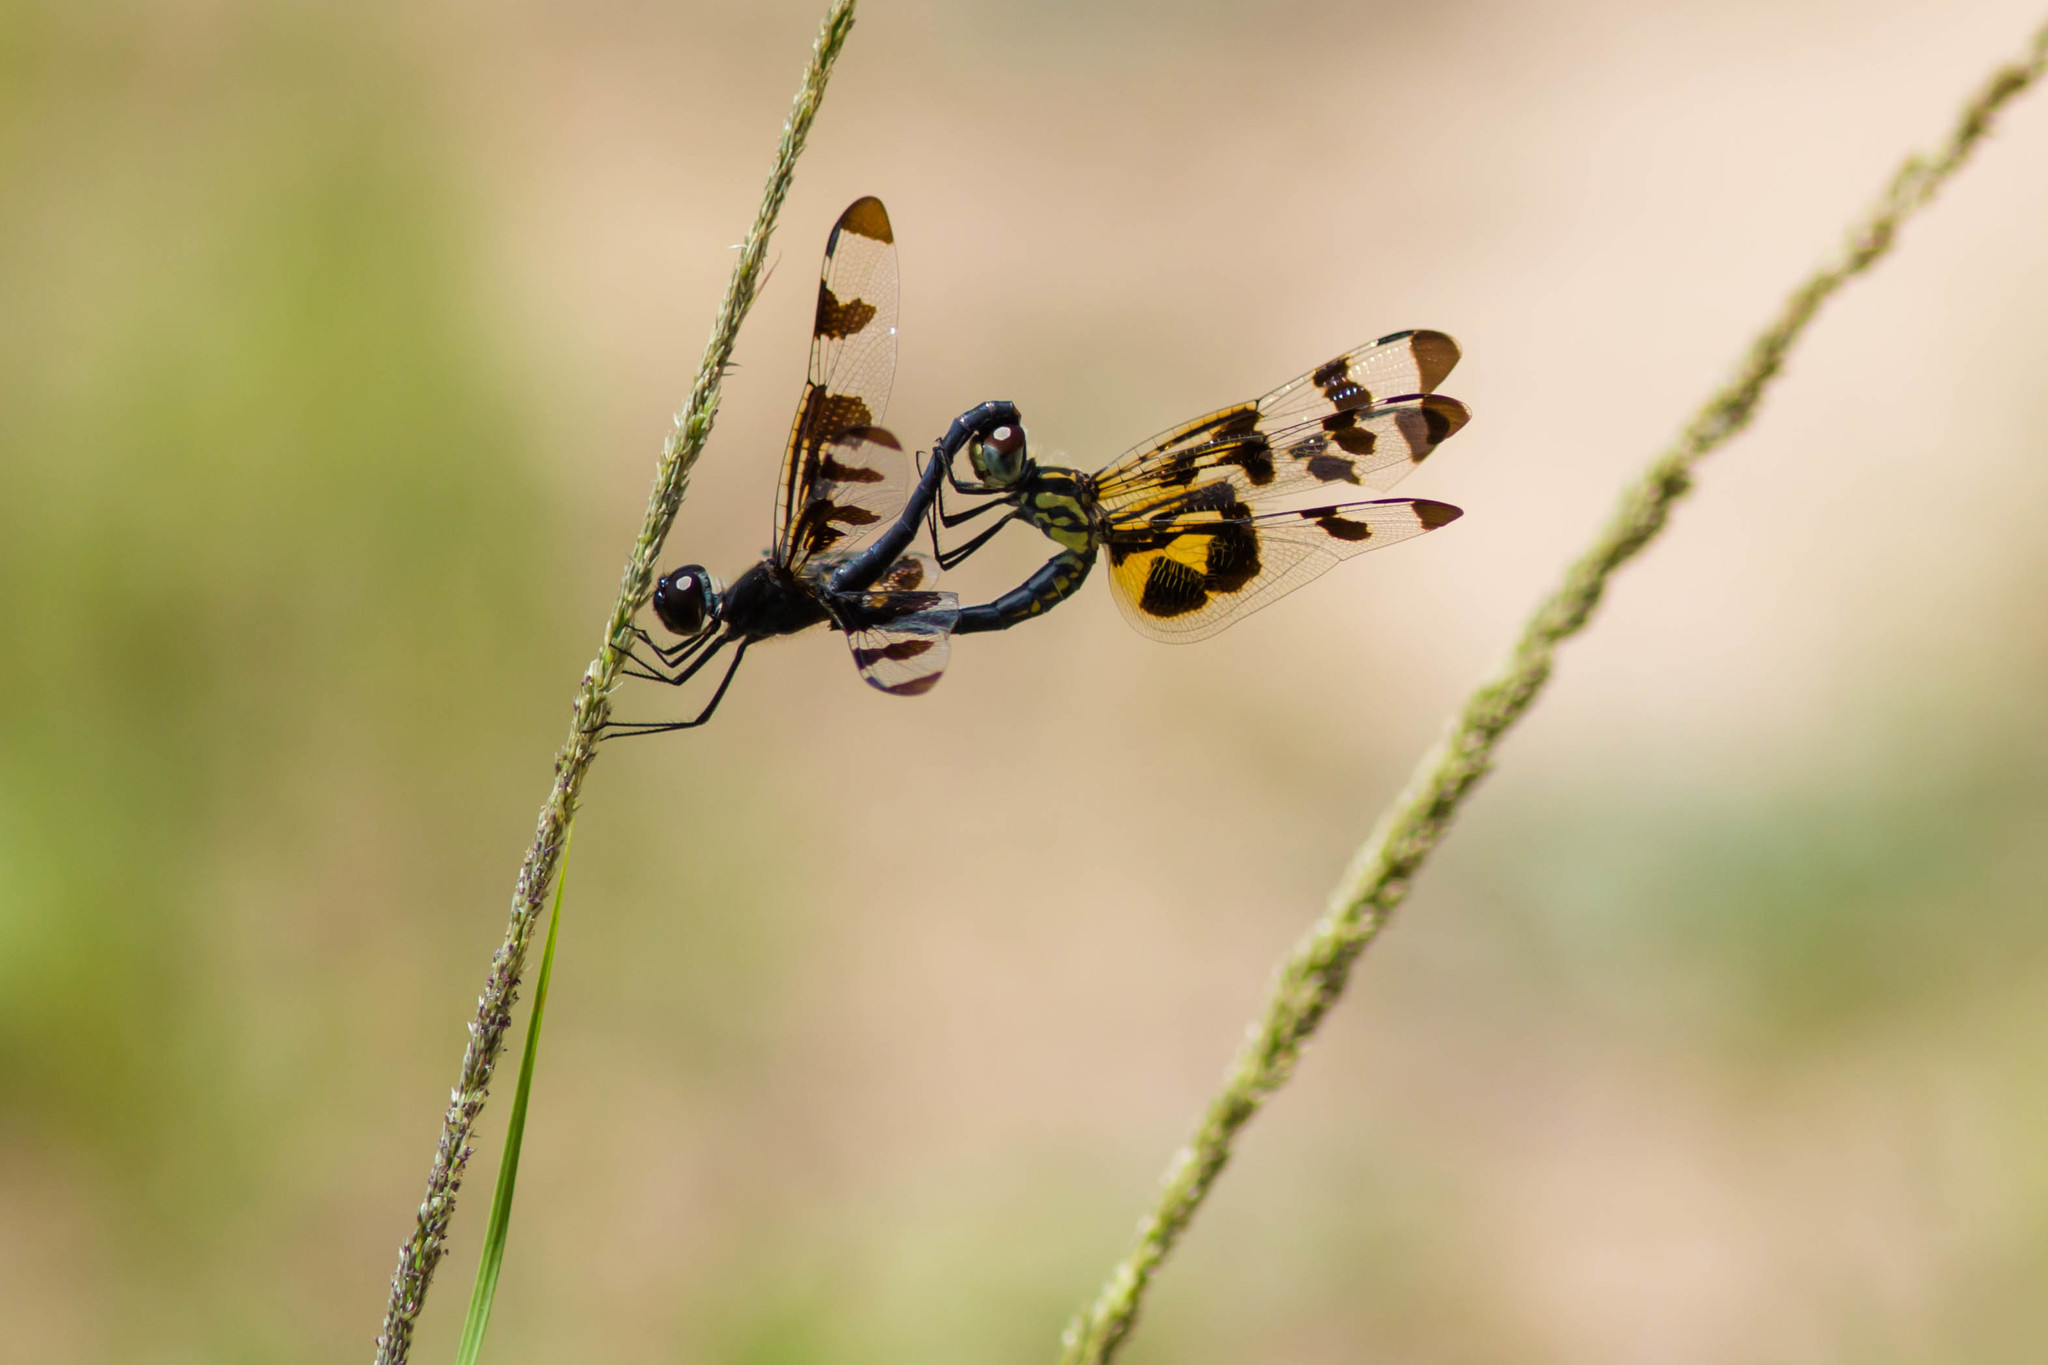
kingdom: Animalia
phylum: Arthropoda
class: Insecta
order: Odonata
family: Libellulidae
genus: Celithemis
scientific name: Celithemis fasciata
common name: Banded pennant
